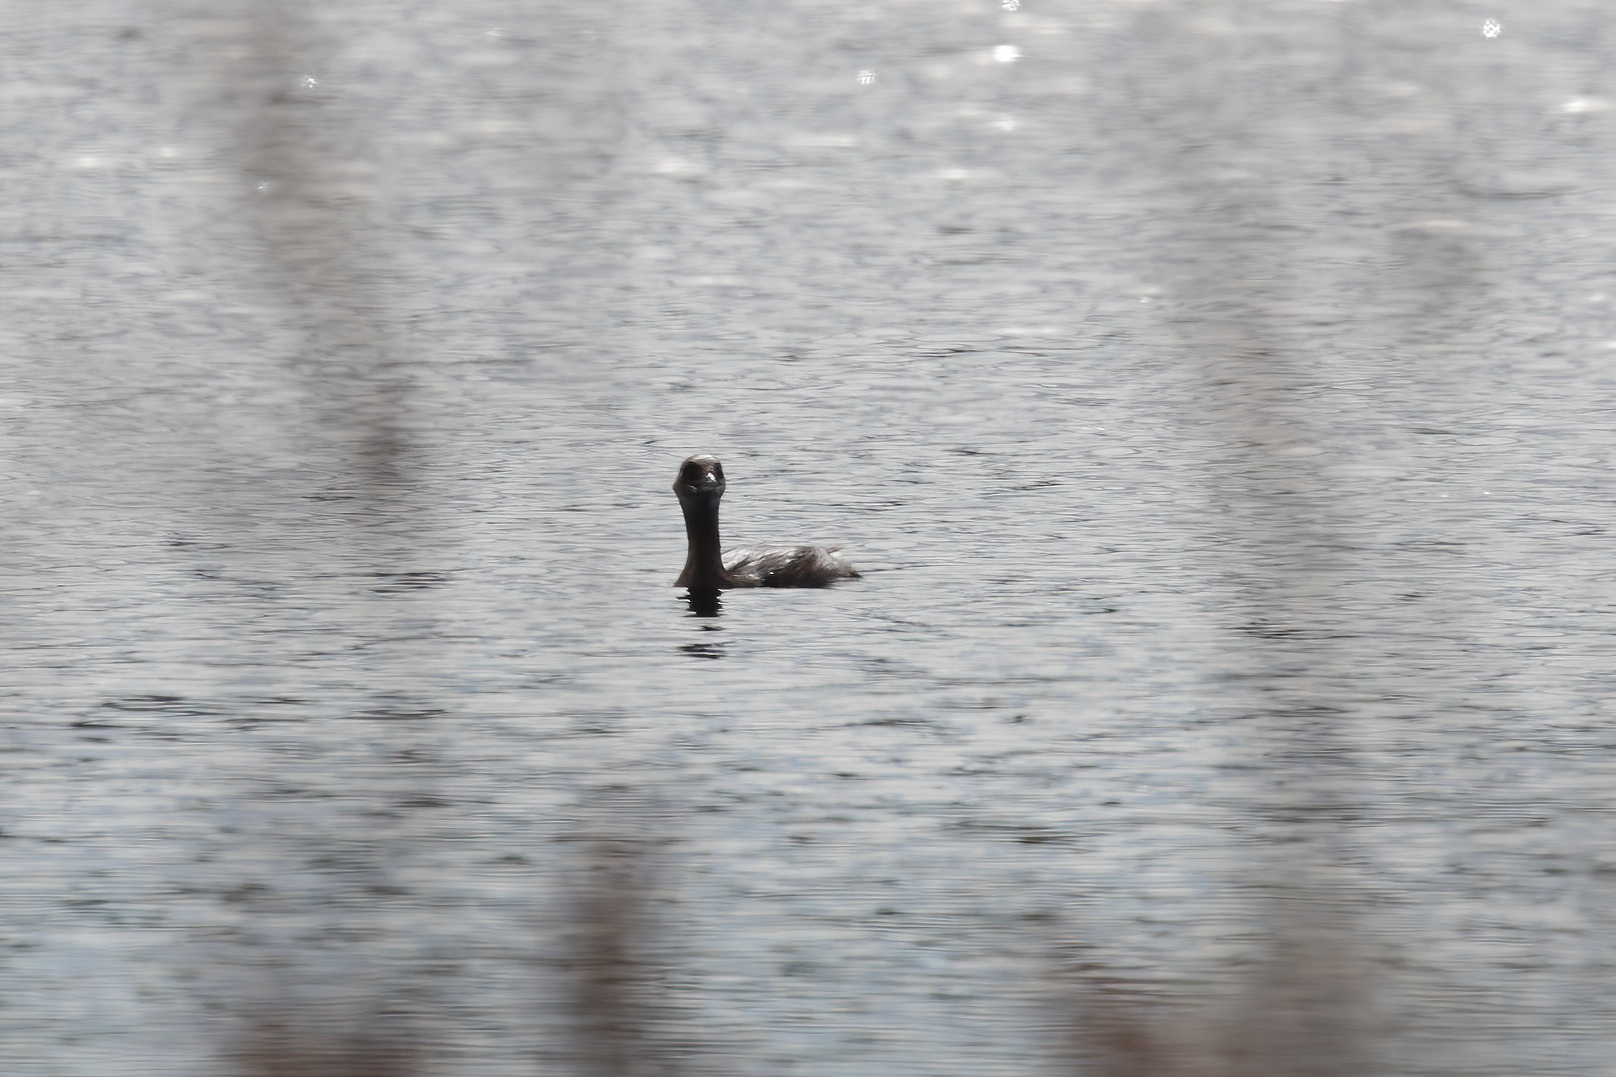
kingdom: Animalia
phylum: Chordata
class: Aves
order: Podicipediformes
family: Podicipedidae
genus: Podilymbus
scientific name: Podilymbus podiceps
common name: Pied-billed grebe
